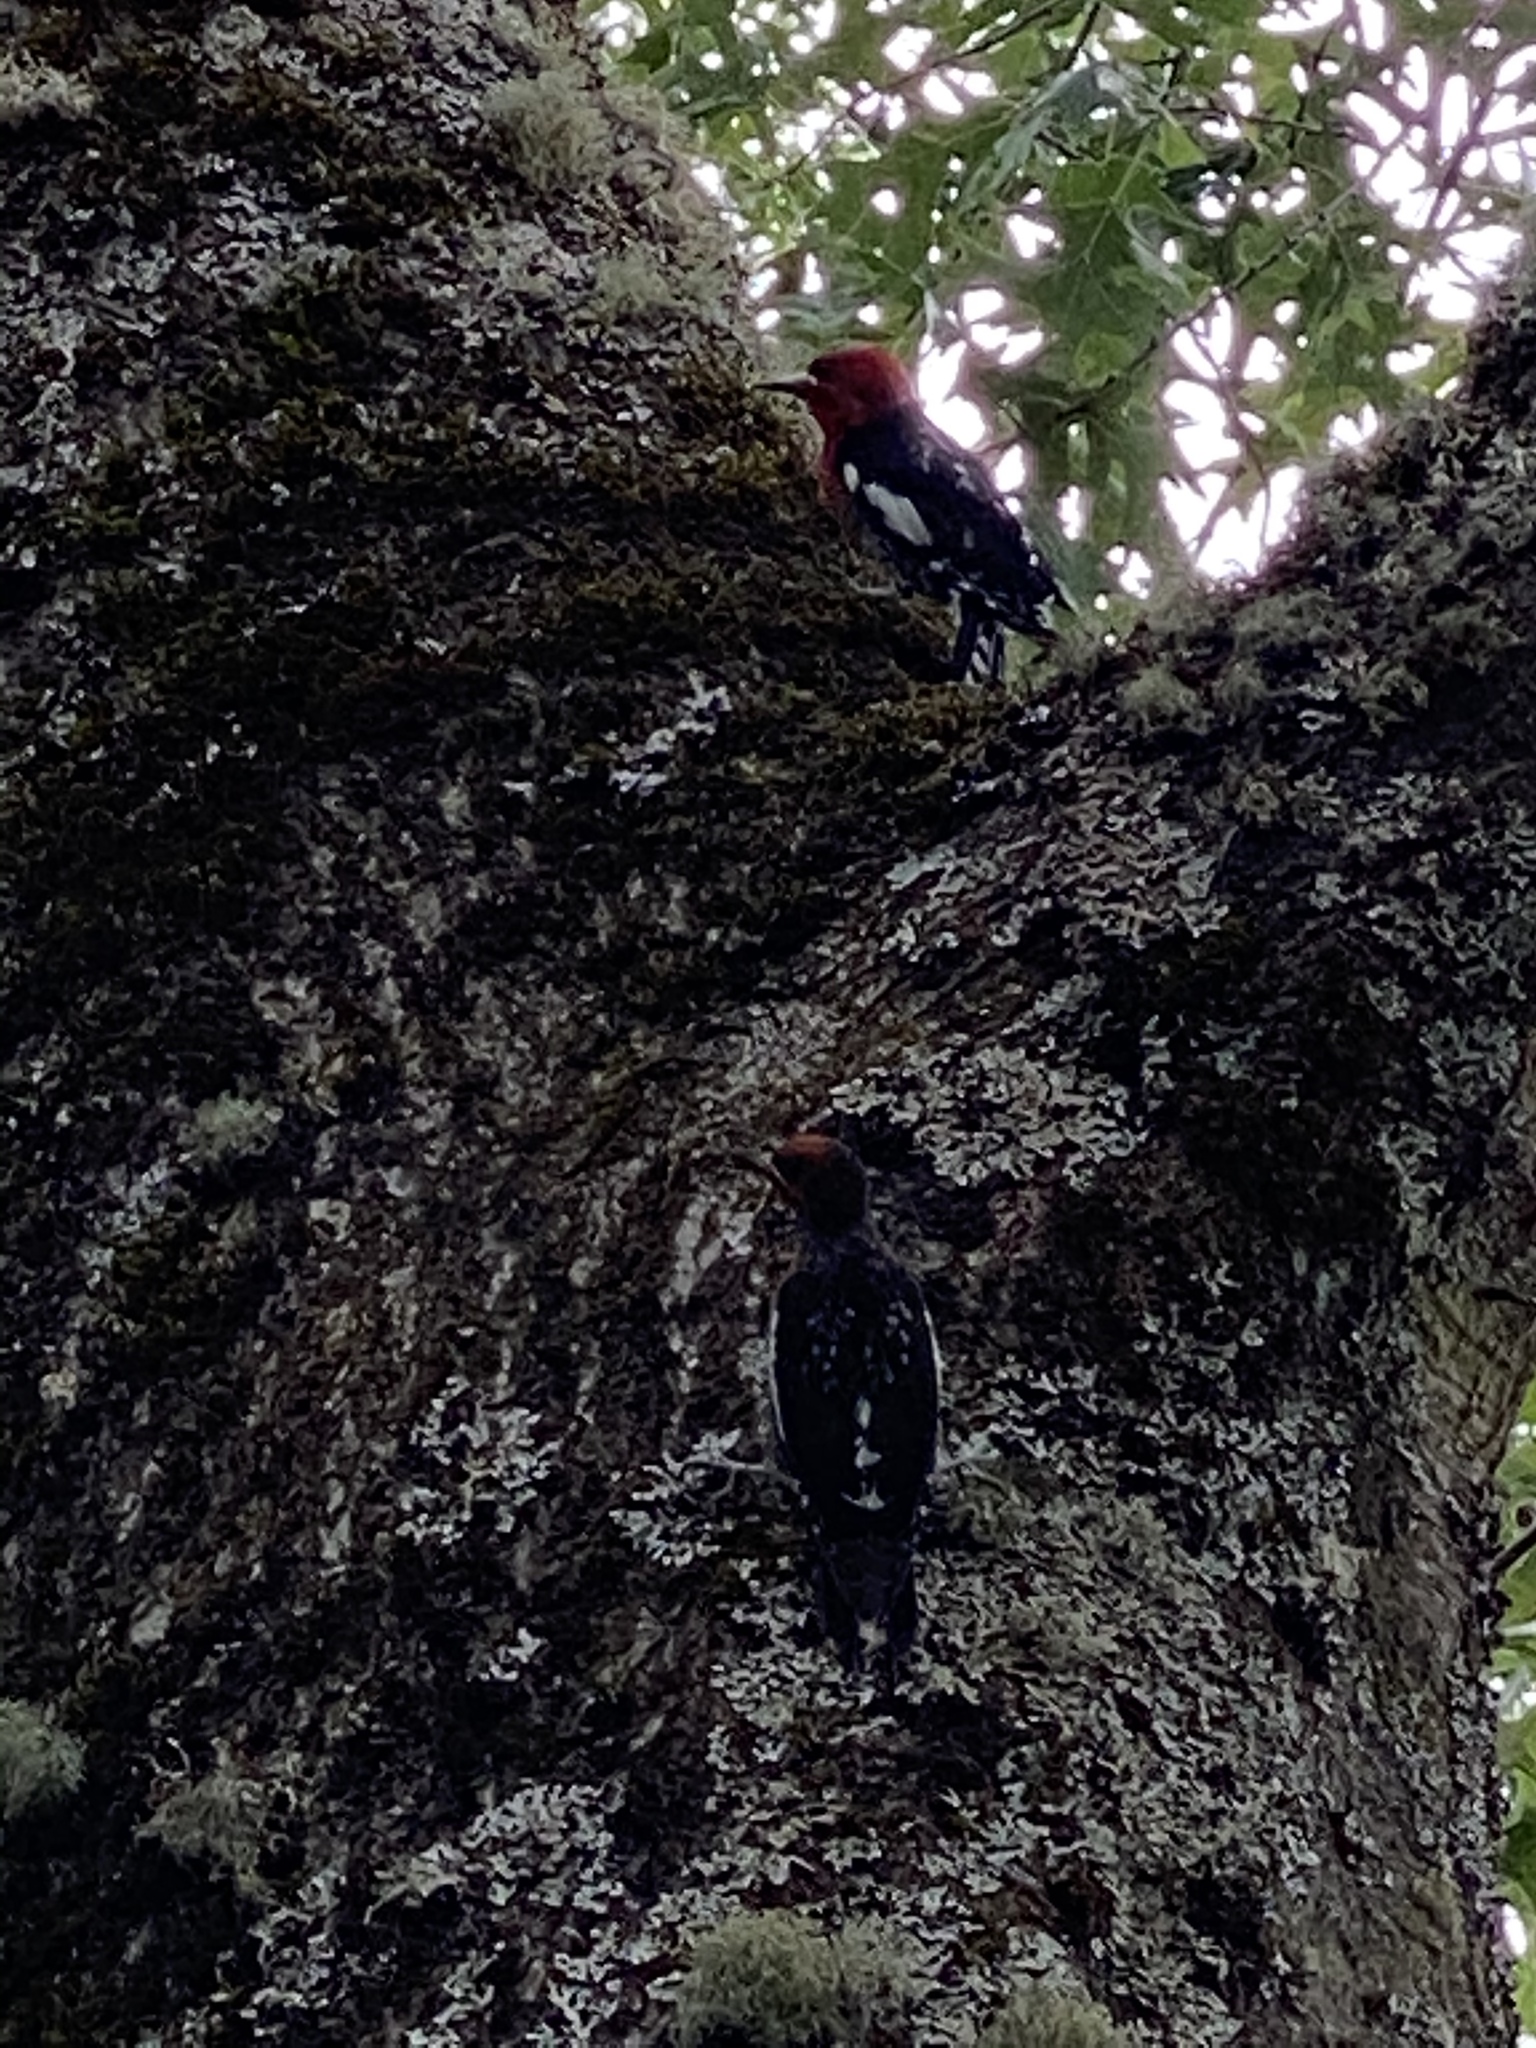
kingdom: Animalia
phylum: Chordata
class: Aves
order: Piciformes
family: Picidae
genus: Sphyrapicus
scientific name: Sphyrapicus ruber
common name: Red-breasted sapsucker
